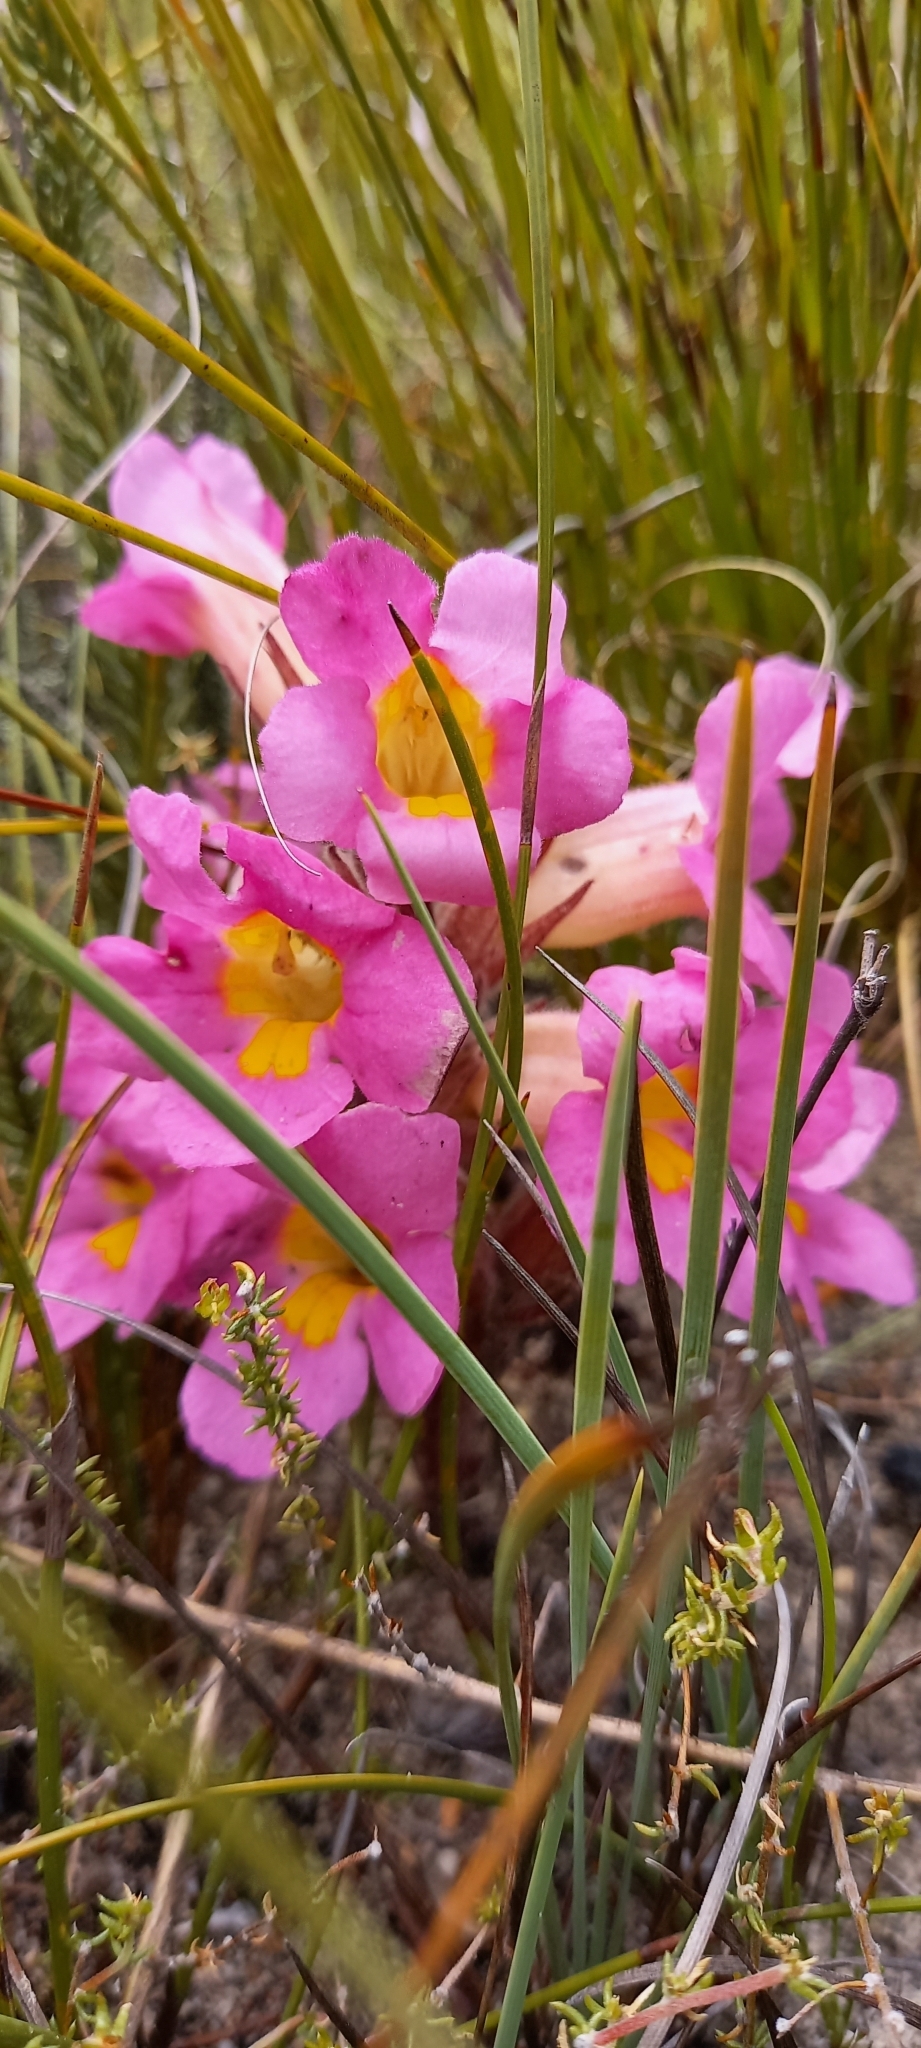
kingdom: Plantae
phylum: Tracheophyta
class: Magnoliopsida
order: Lamiales
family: Orobanchaceae
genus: Harveya
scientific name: Harveya purpurea
